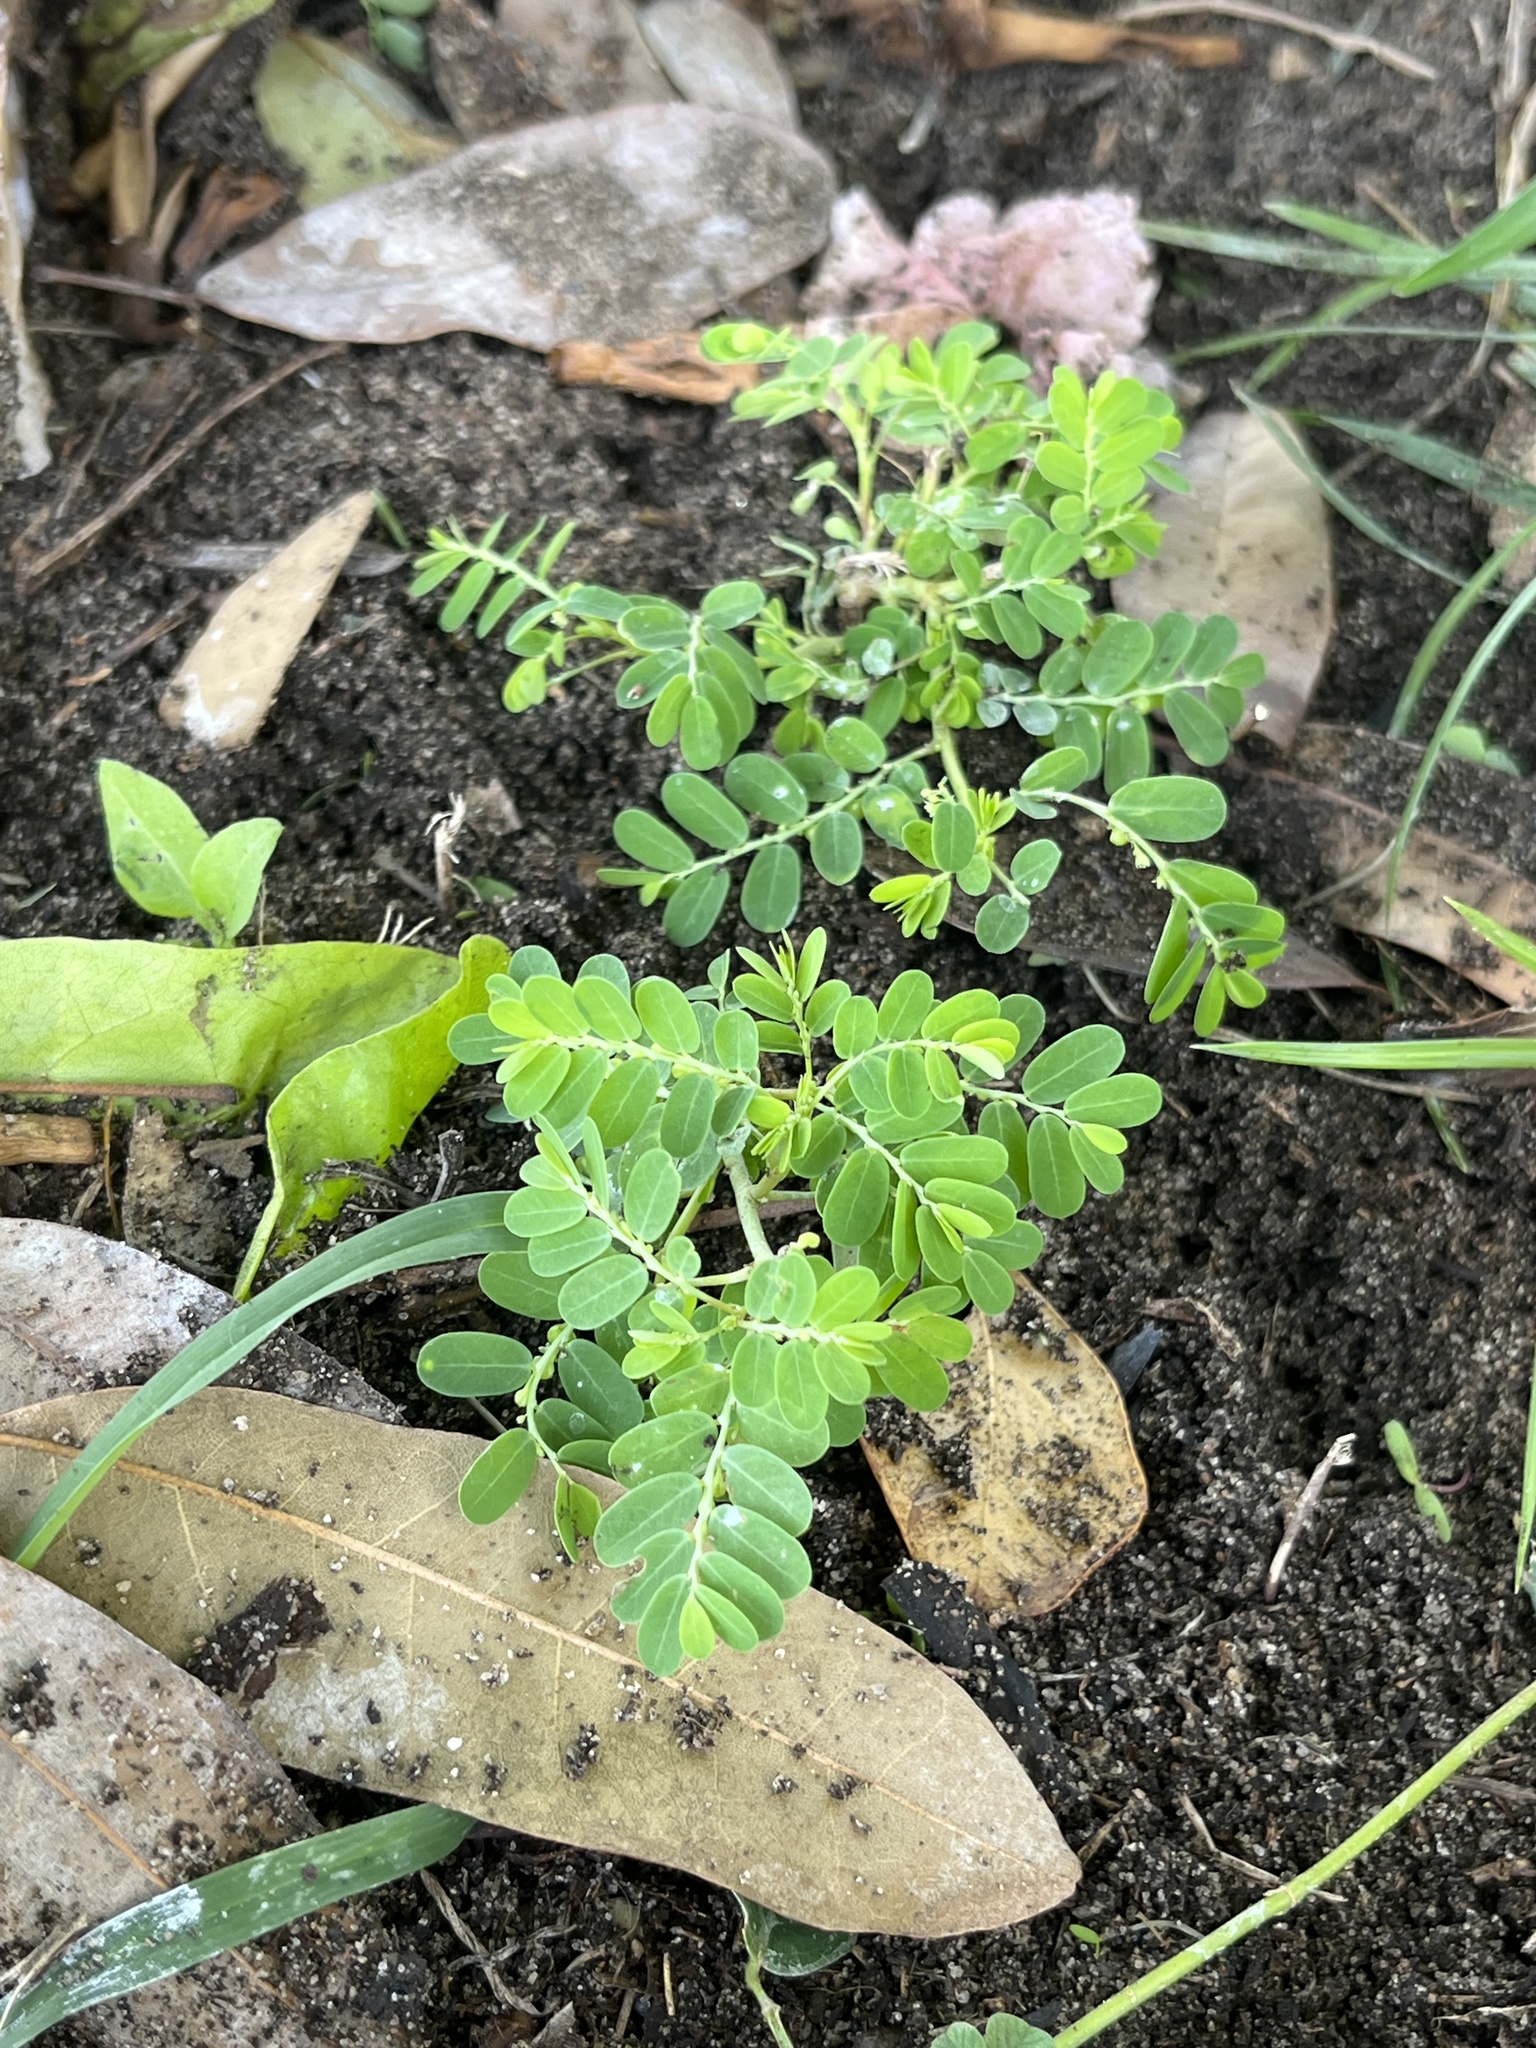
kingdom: Plantae
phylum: Tracheophyta
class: Magnoliopsida
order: Malpighiales
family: Phyllanthaceae
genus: Phyllanthus
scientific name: Phyllanthus amarus
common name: Carry me seed
